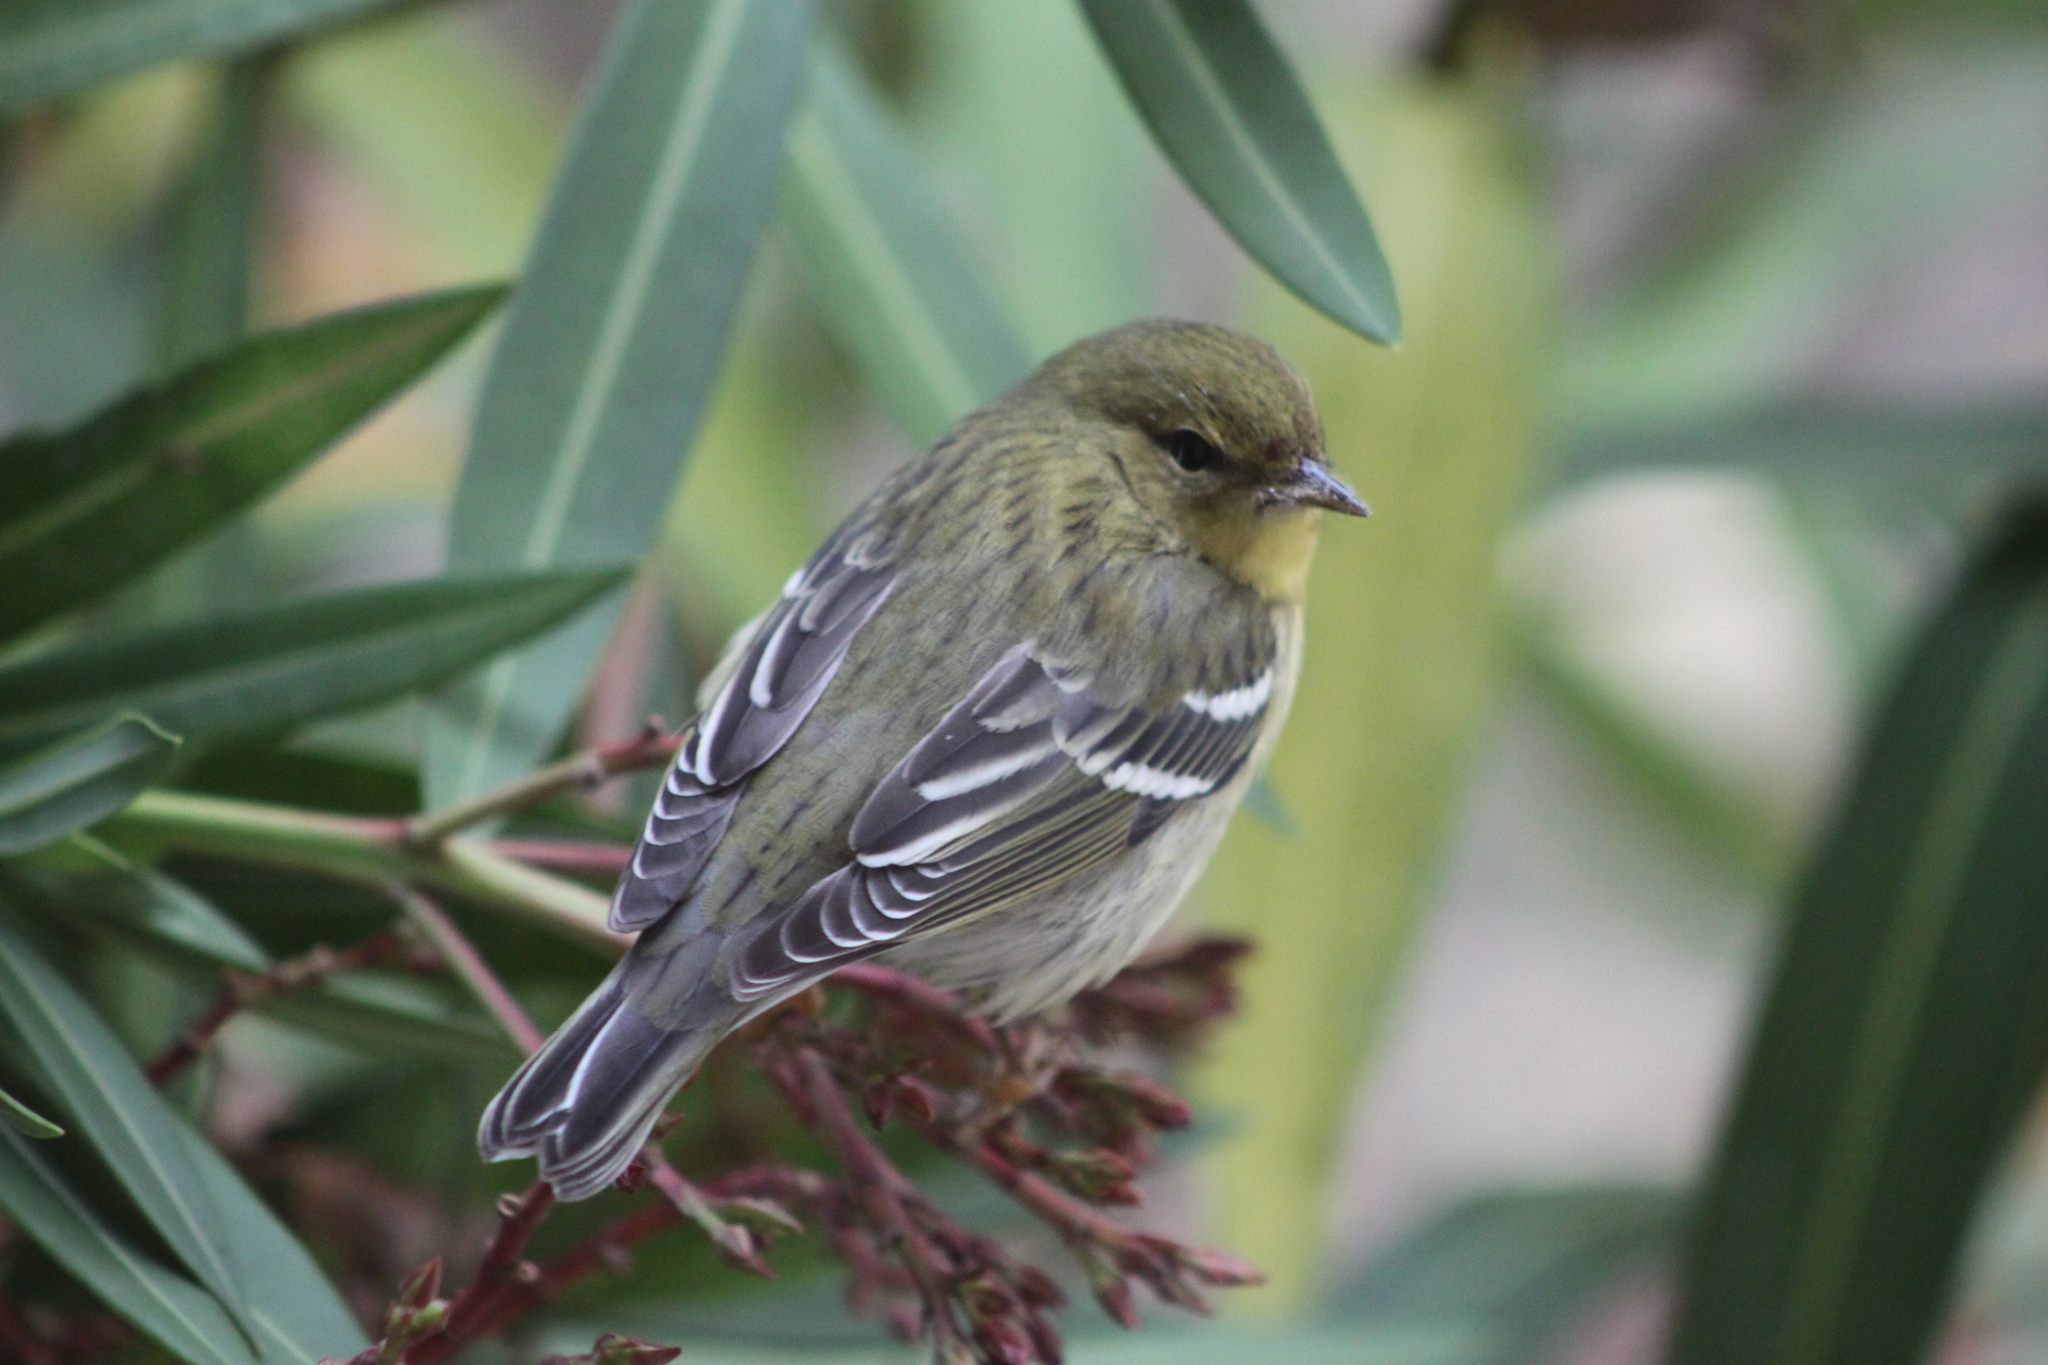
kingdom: Animalia
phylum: Chordata
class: Aves
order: Passeriformes
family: Parulidae
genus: Setophaga
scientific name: Setophaga striata
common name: Blackpoll warbler
